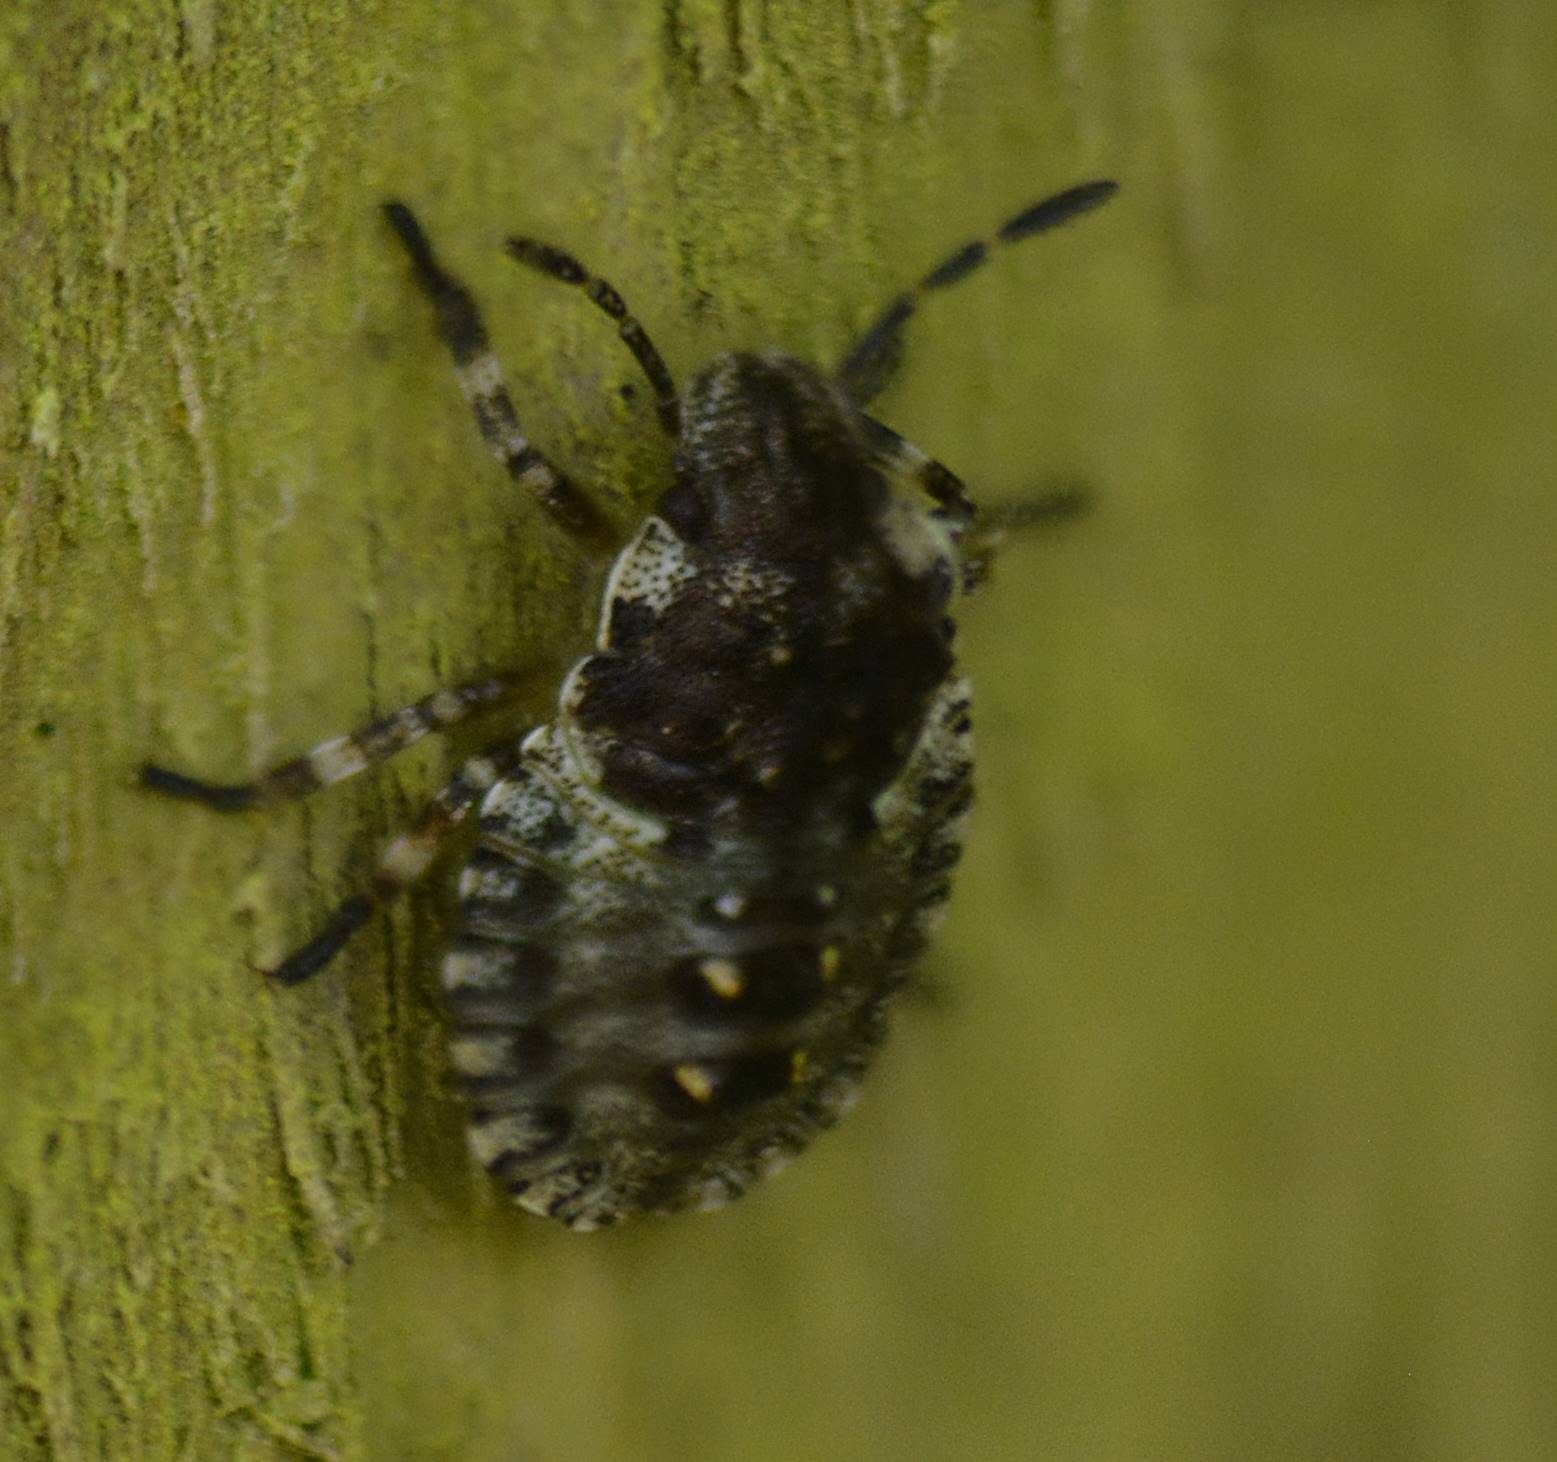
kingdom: Animalia
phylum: Arthropoda
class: Insecta
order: Hemiptera
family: Pentatomidae
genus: Pentatoma
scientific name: Pentatoma rufipes
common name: Forest bug
